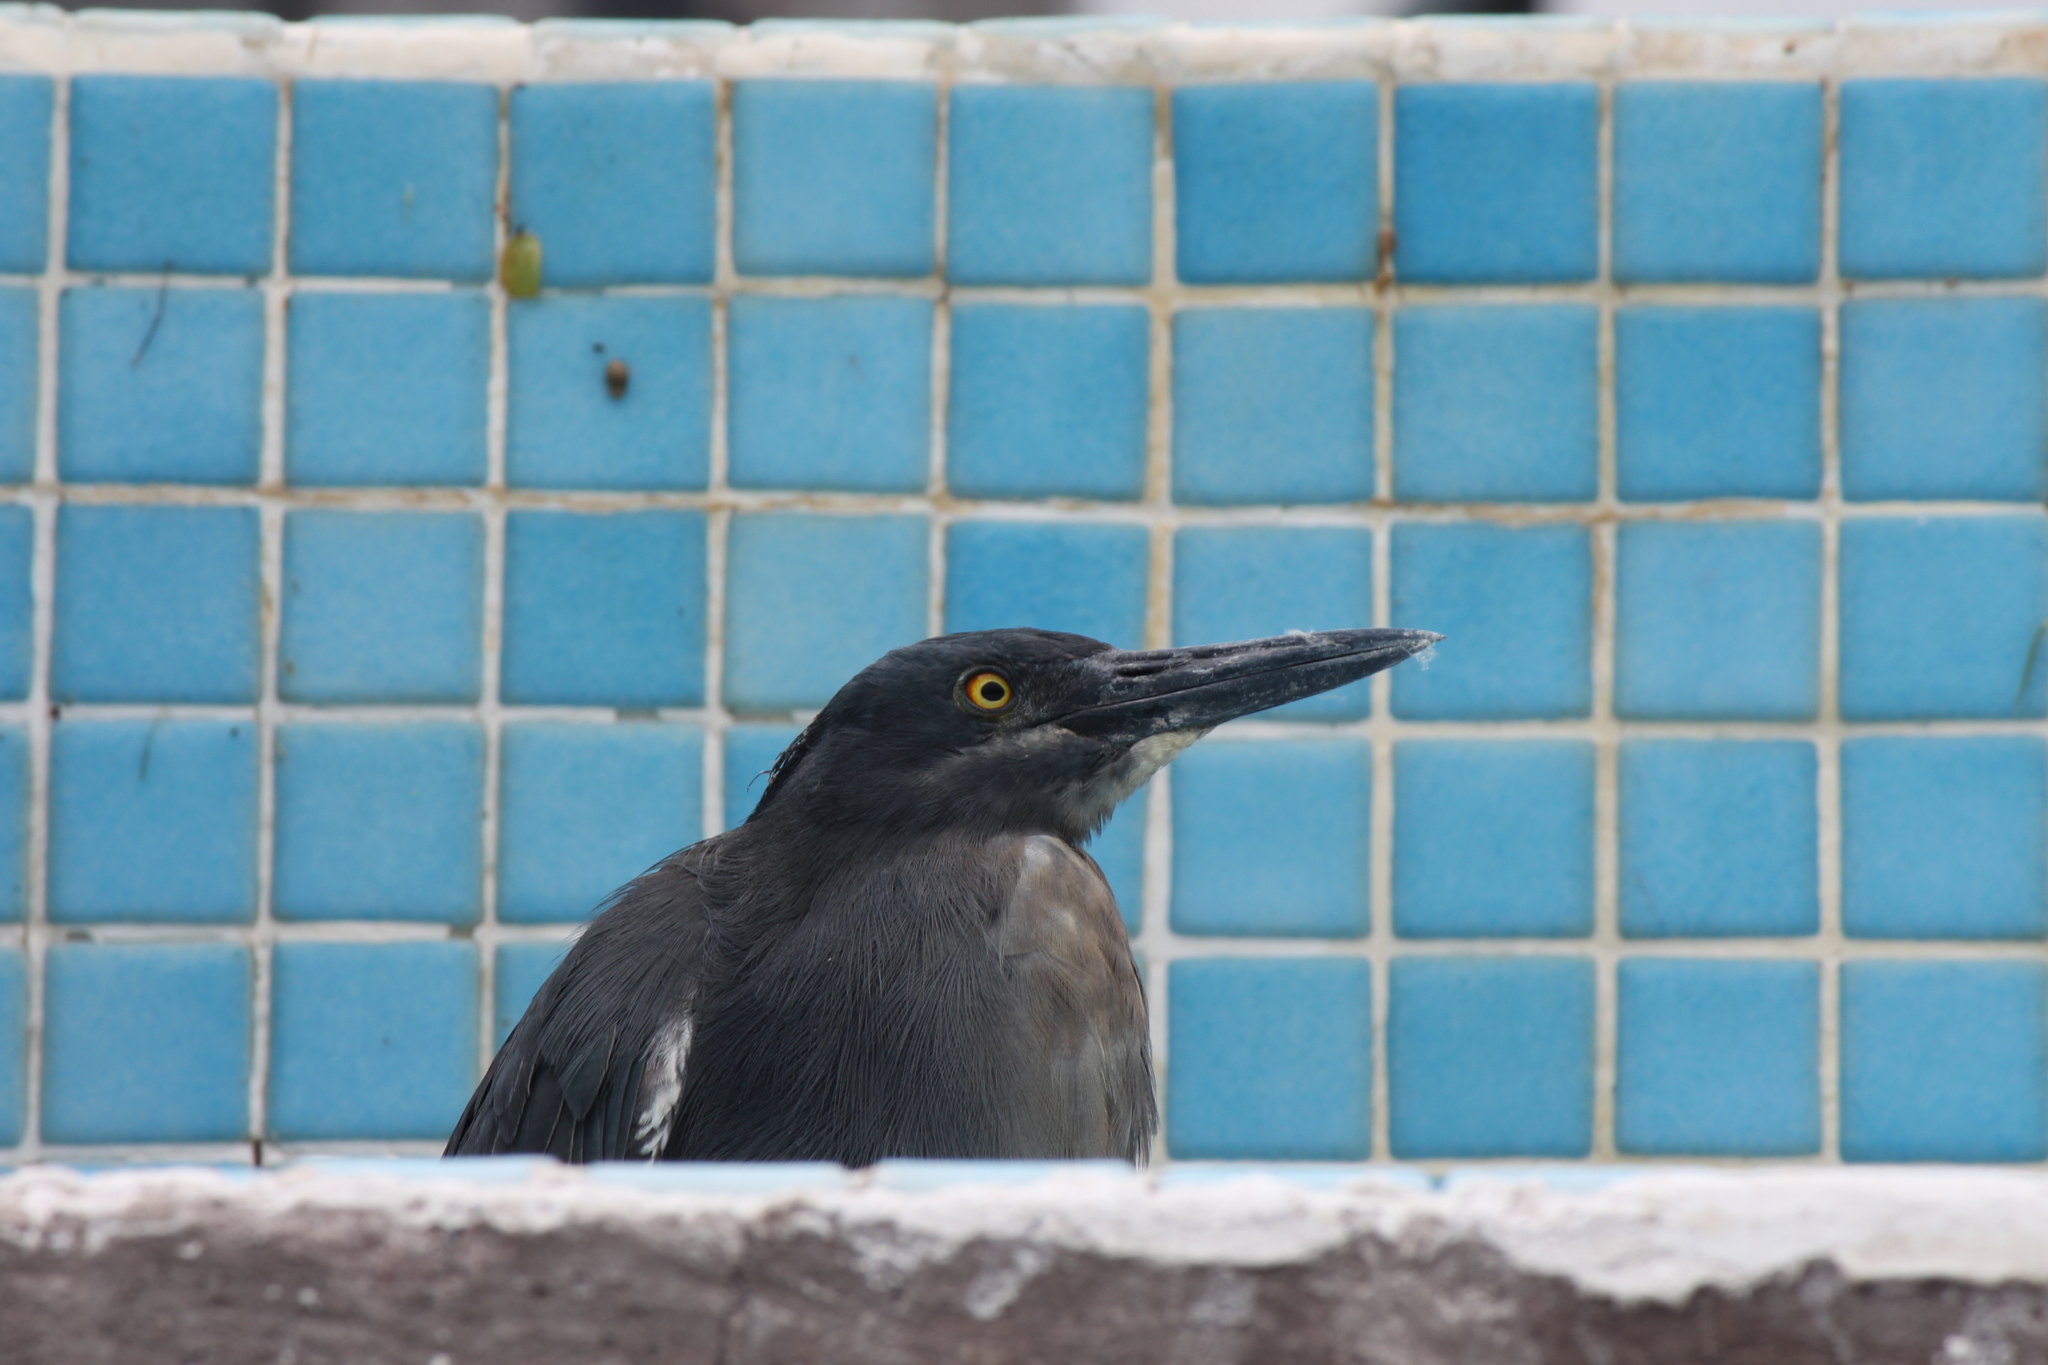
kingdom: Animalia
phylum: Chordata
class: Aves
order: Pelecaniformes
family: Ardeidae
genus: Butorides
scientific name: Butorides striata
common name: Striated heron
